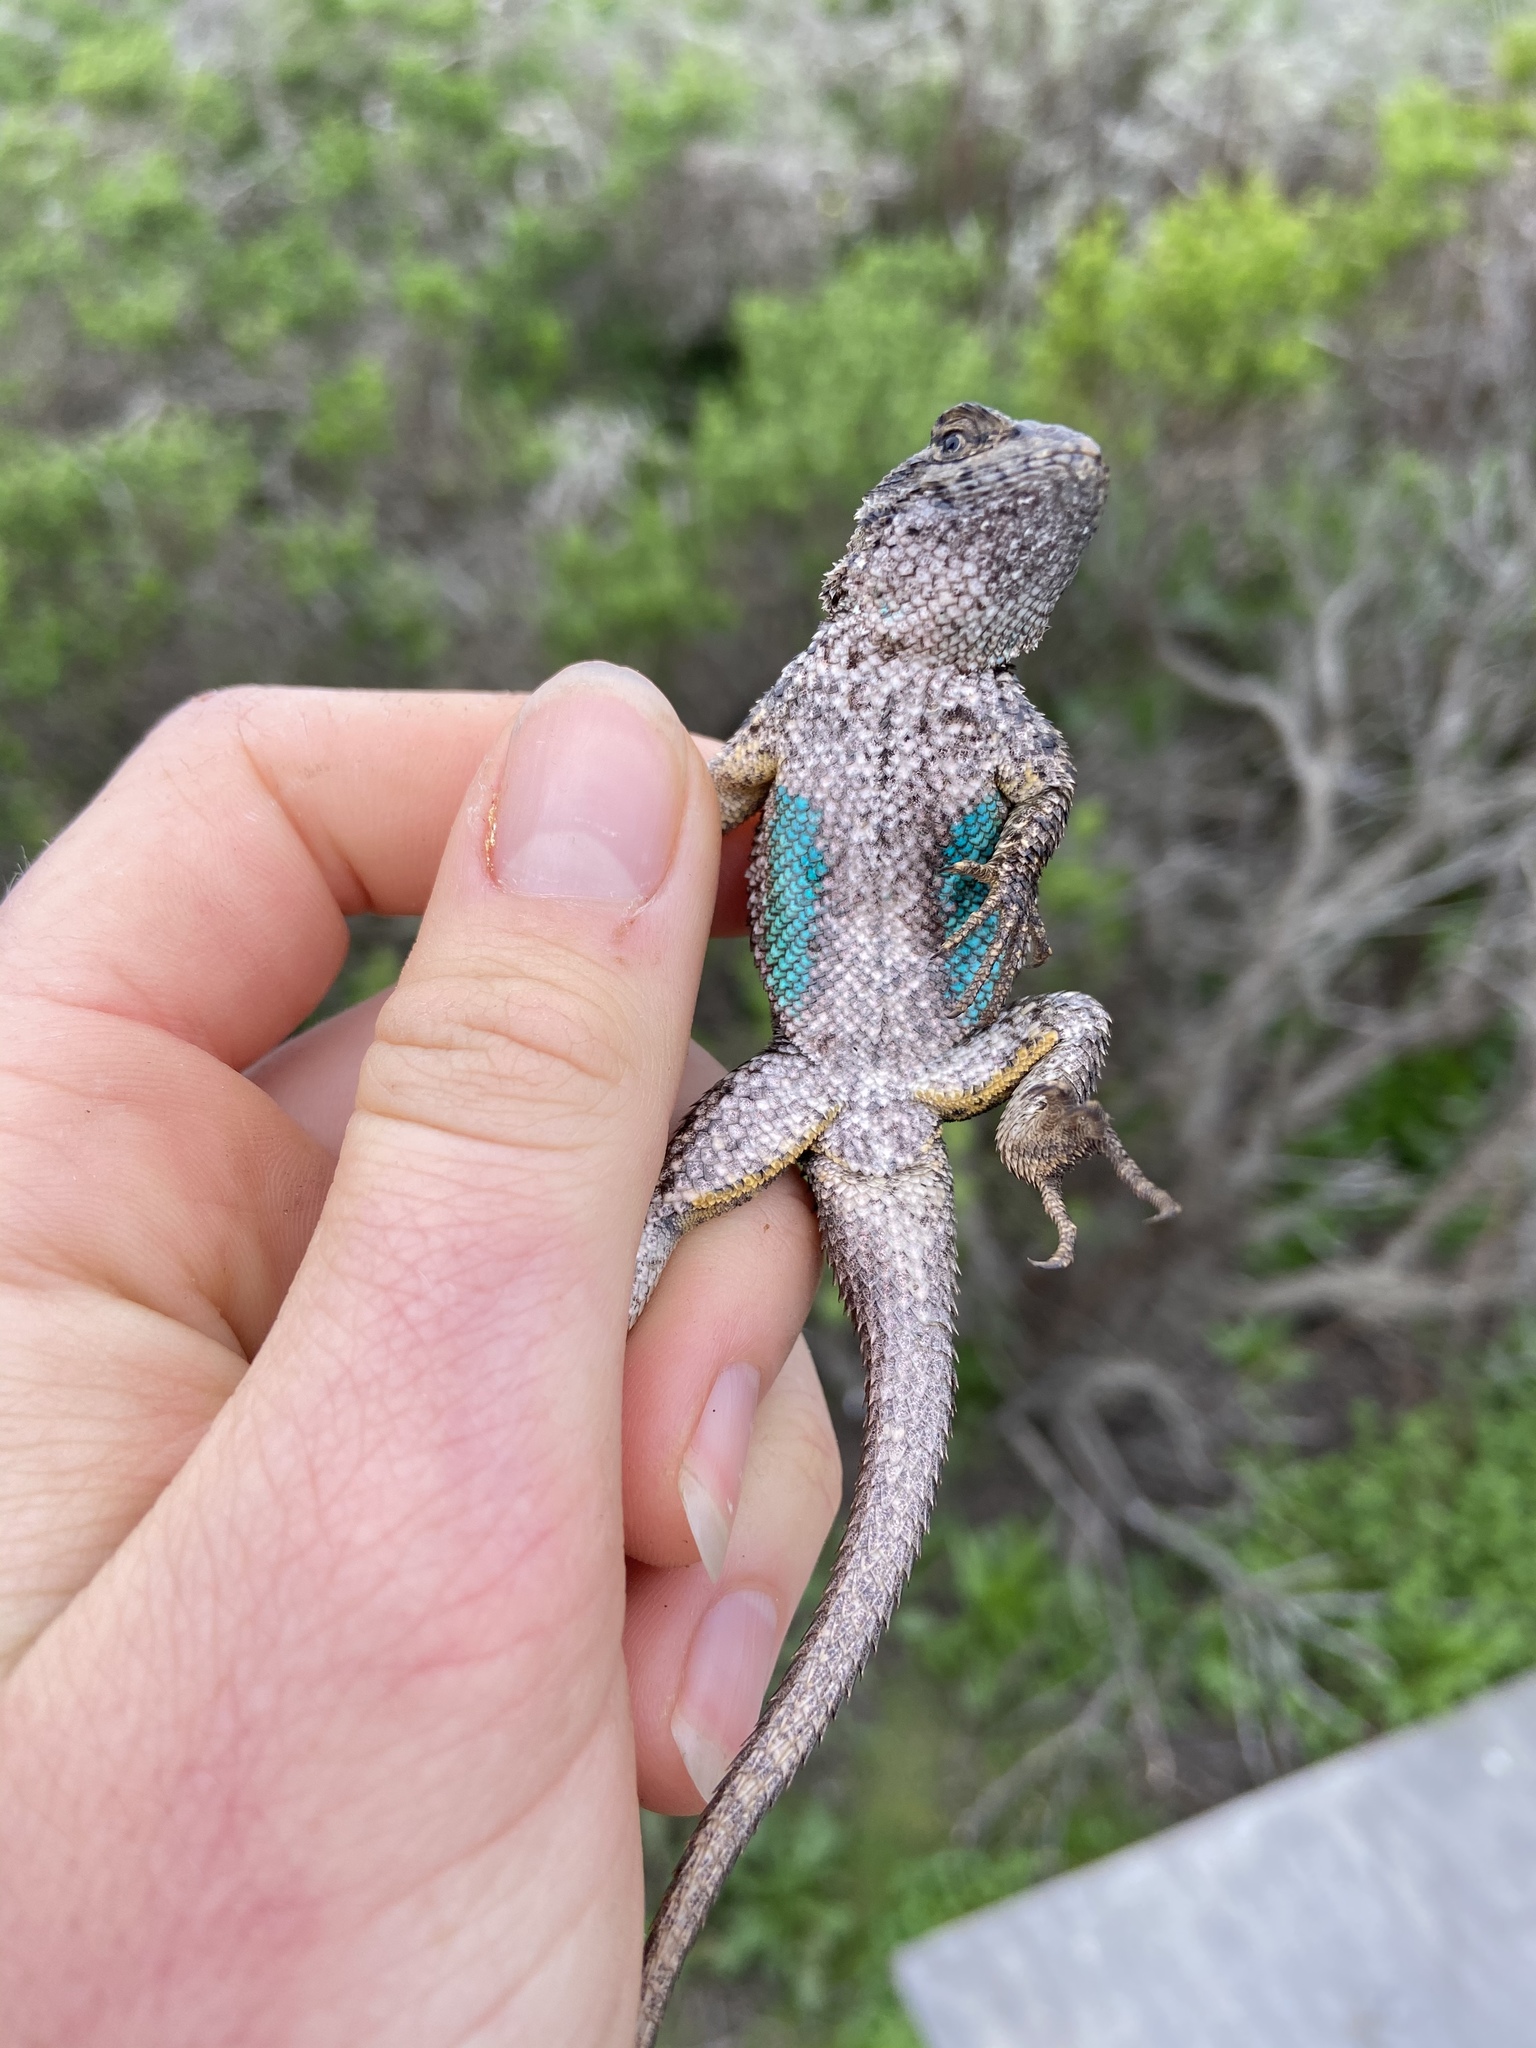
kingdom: Animalia
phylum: Chordata
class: Squamata
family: Phrynosomatidae
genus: Sceloporus
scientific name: Sceloporus occidentalis
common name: Western fence lizard
